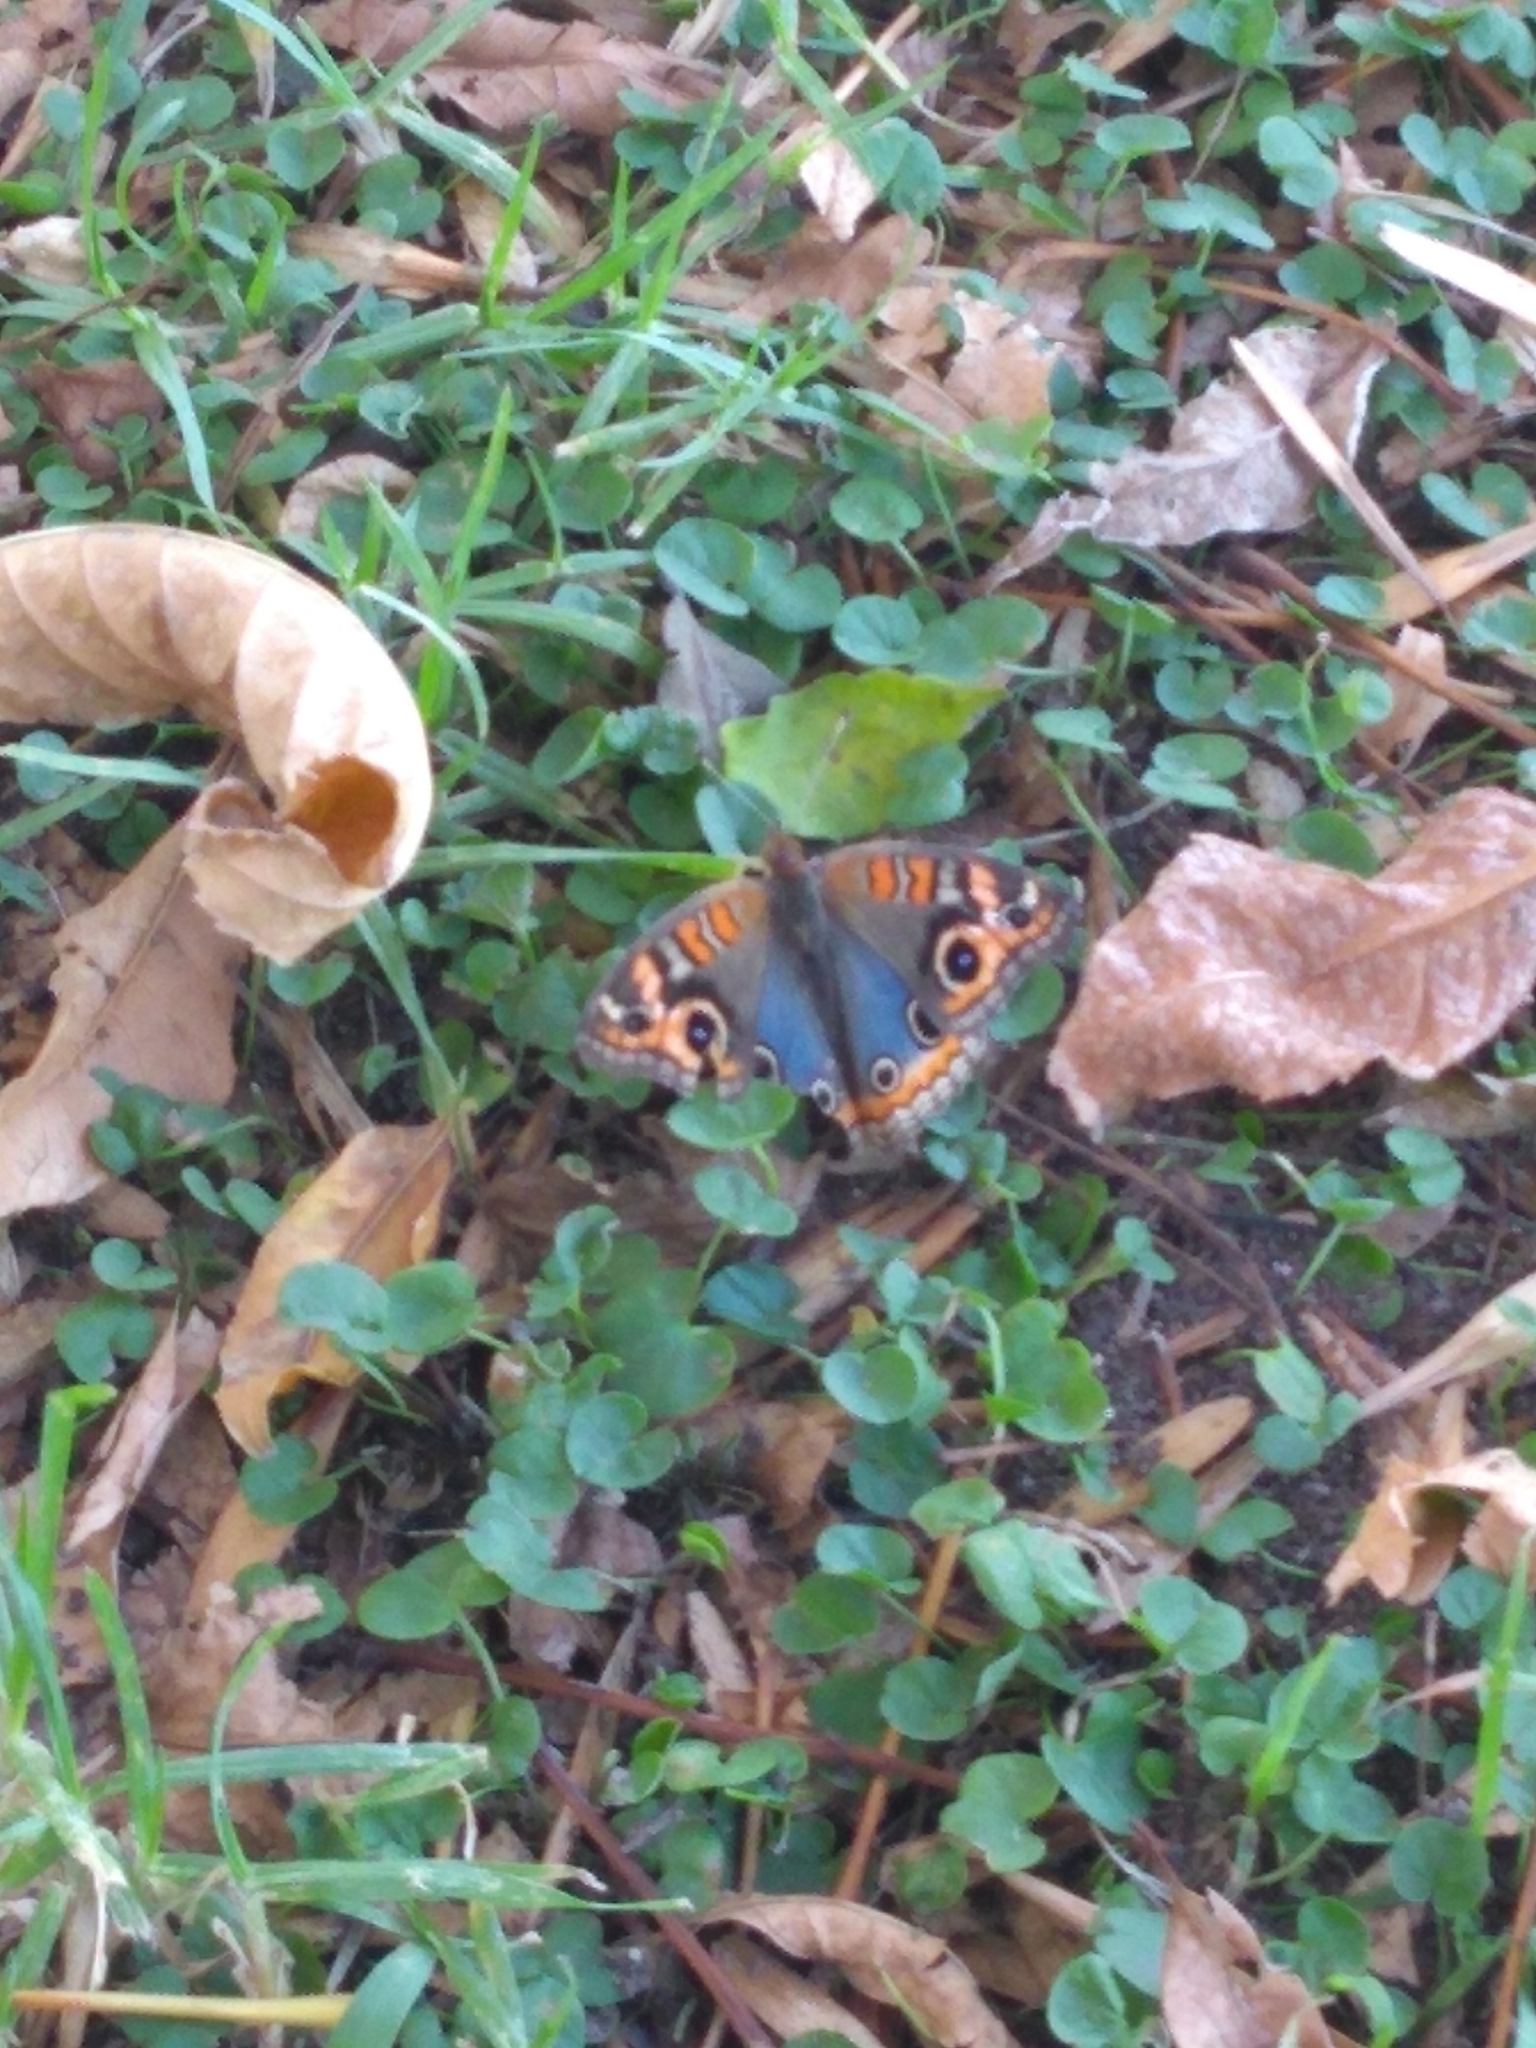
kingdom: Animalia
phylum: Arthropoda
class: Insecta
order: Lepidoptera
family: Nymphalidae
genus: Junonia
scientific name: Junonia lavinia
